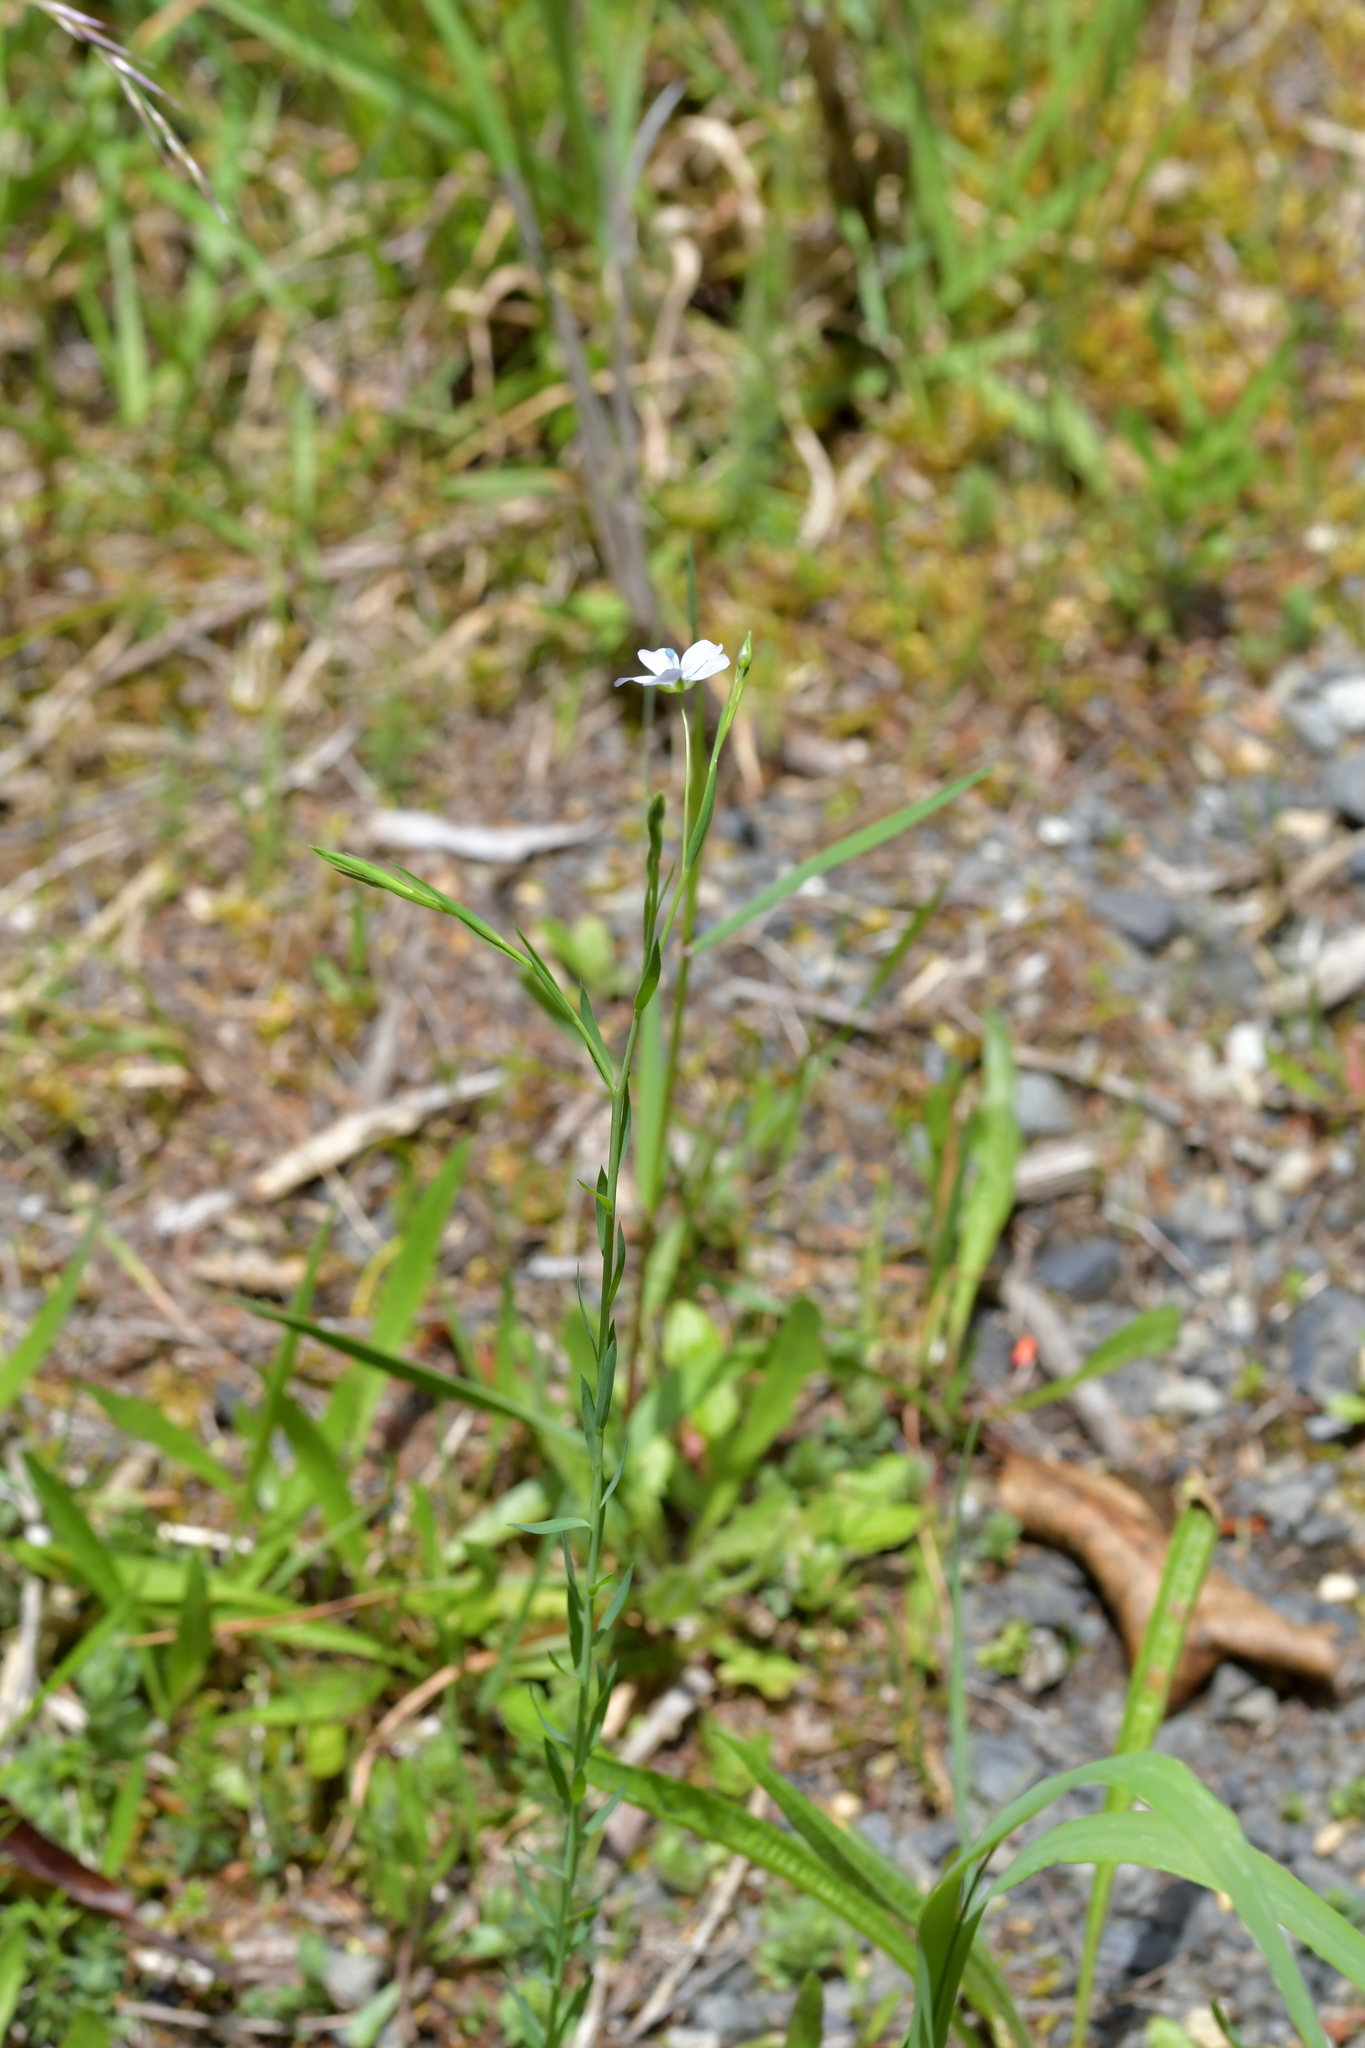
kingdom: Plantae
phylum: Tracheophyta
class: Magnoliopsida
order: Malpighiales
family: Linaceae
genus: Linum
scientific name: Linum bienne
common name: Pale flax
